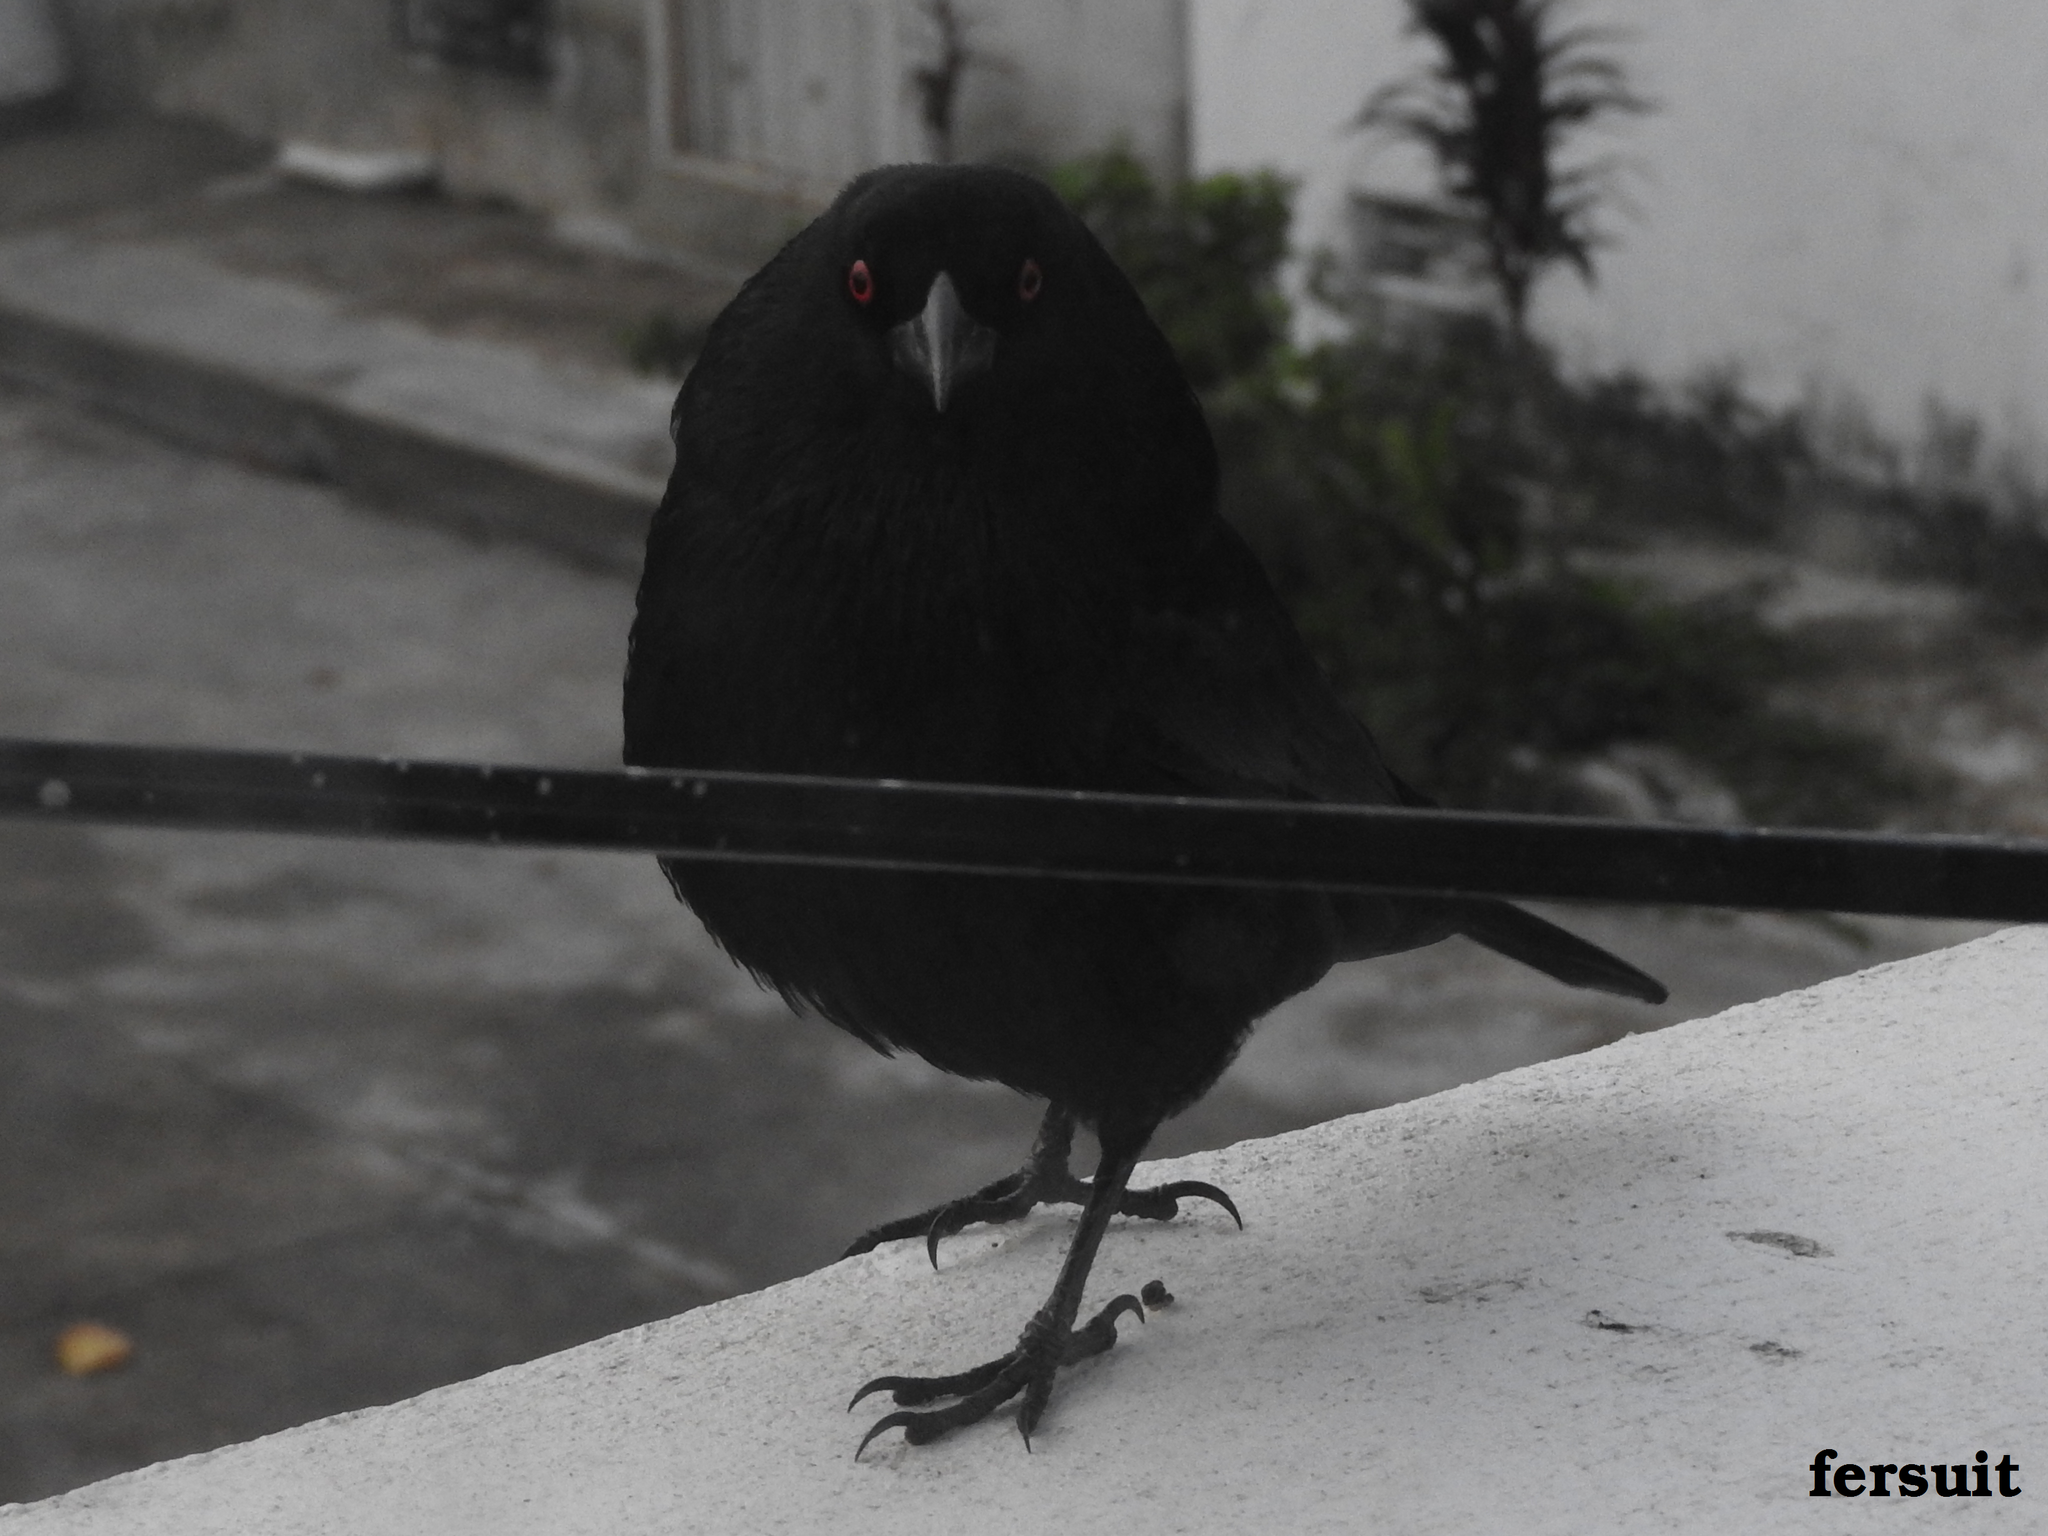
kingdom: Animalia
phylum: Chordata
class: Aves
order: Passeriformes
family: Icteridae
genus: Molothrus
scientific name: Molothrus aeneus
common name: Bronzed cowbird
